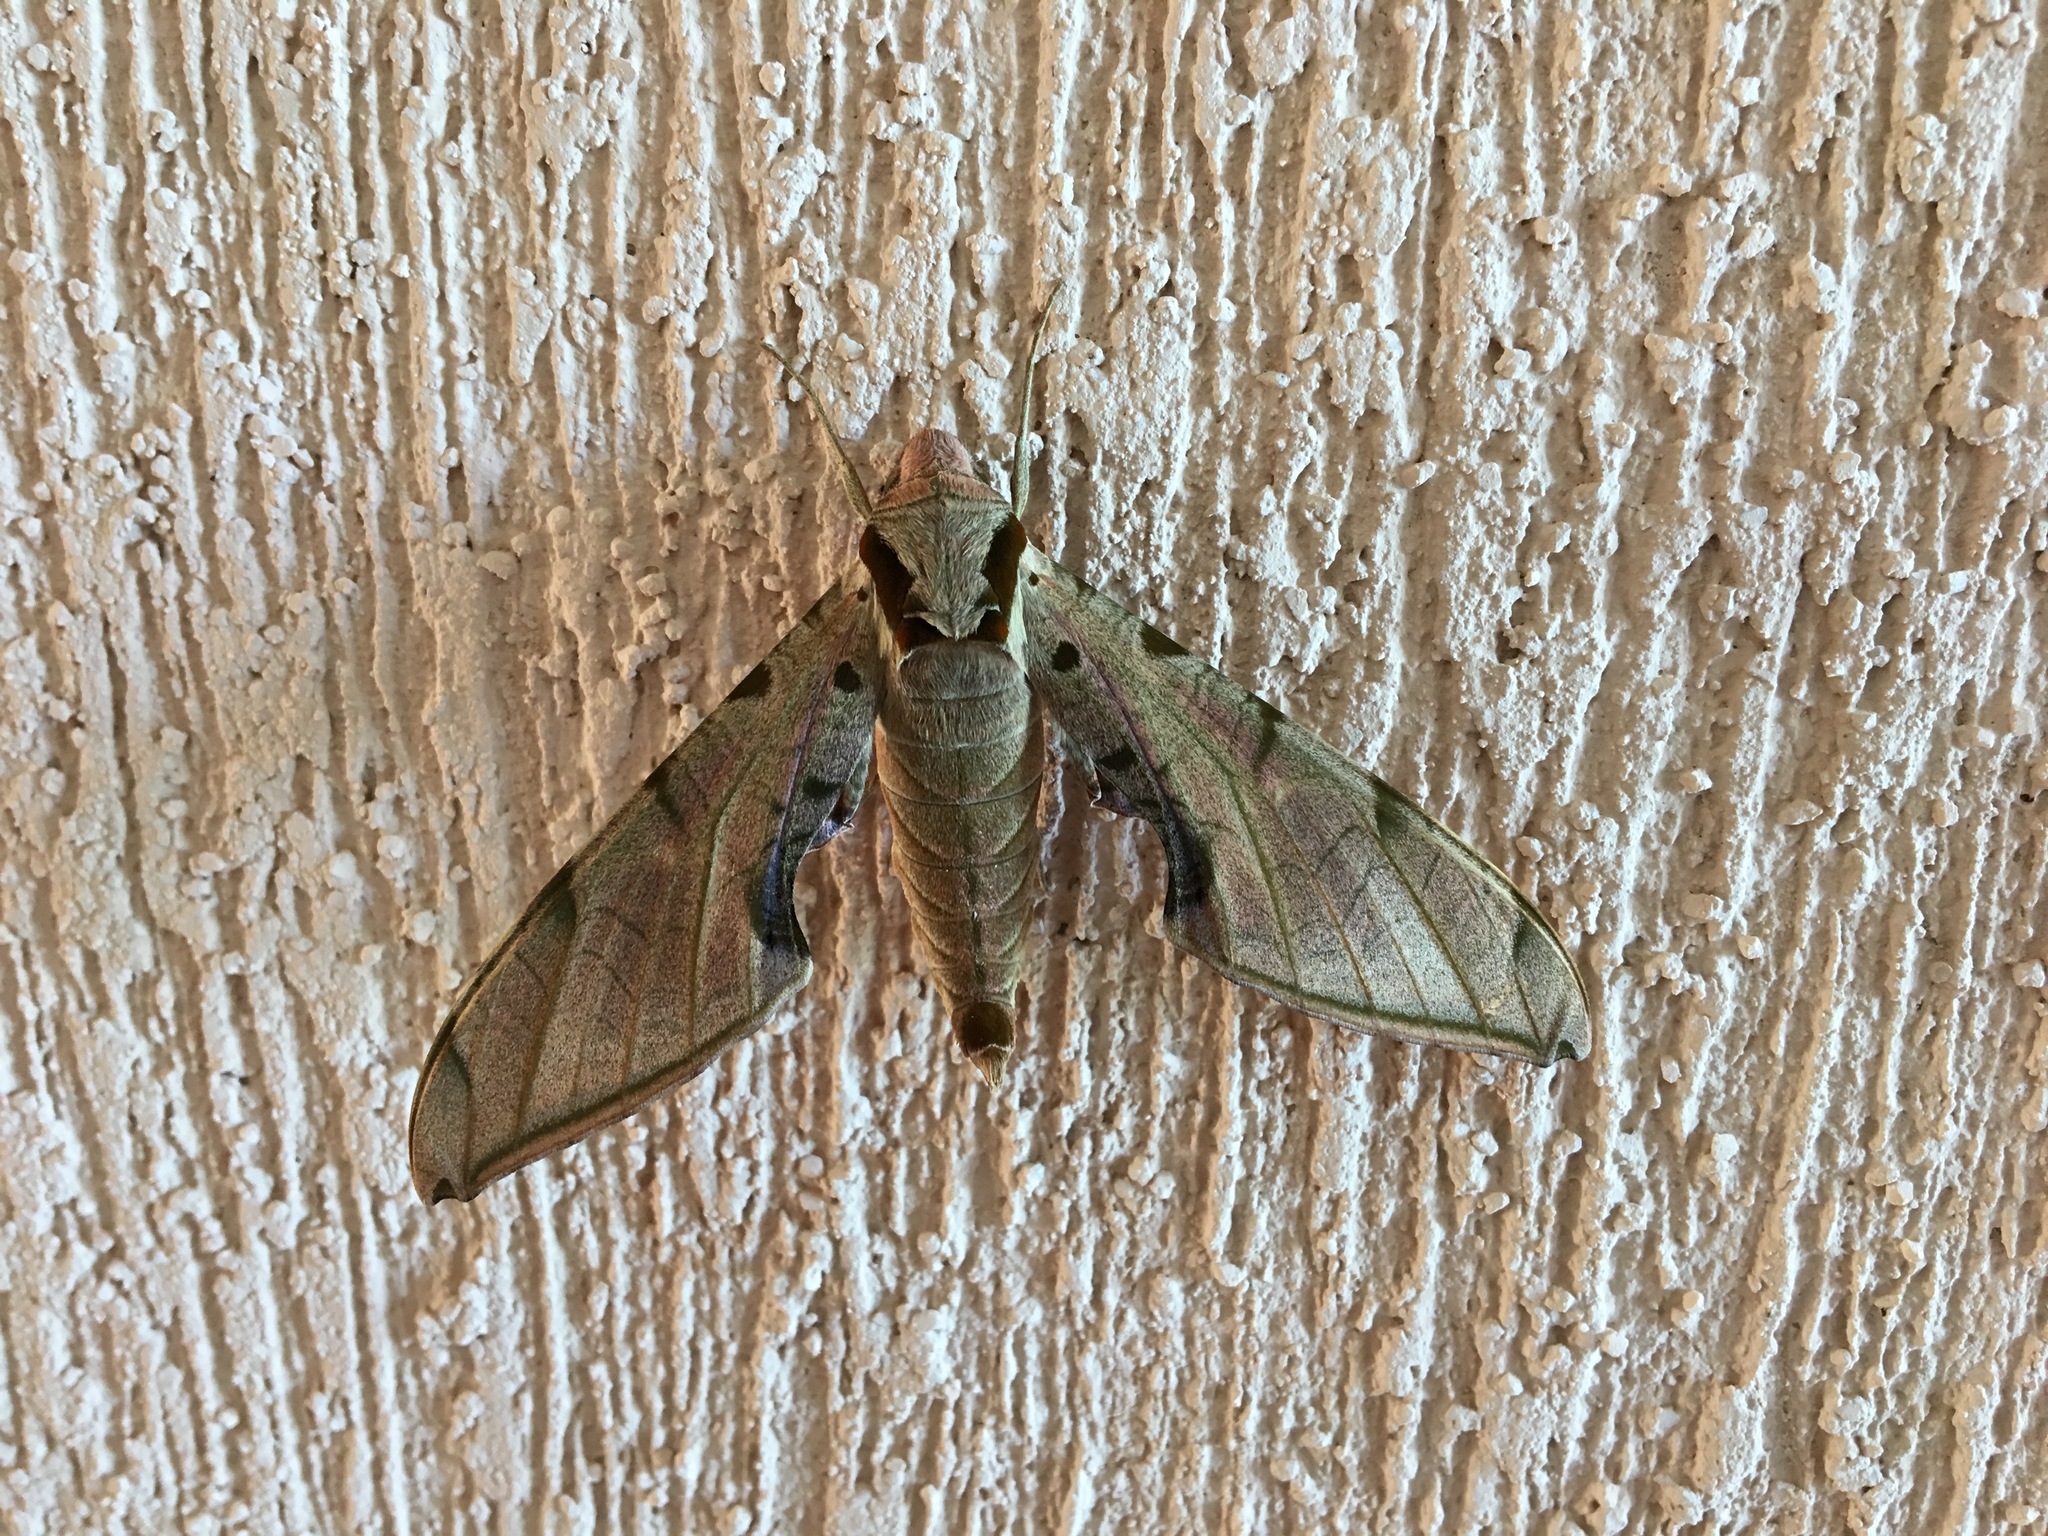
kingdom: Animalia
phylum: Arthropoda
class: Insecta
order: Lepidoptera
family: Sphingidae
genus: Protambulyx
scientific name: Protambulyx strigilis
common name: Streaked sphinx
